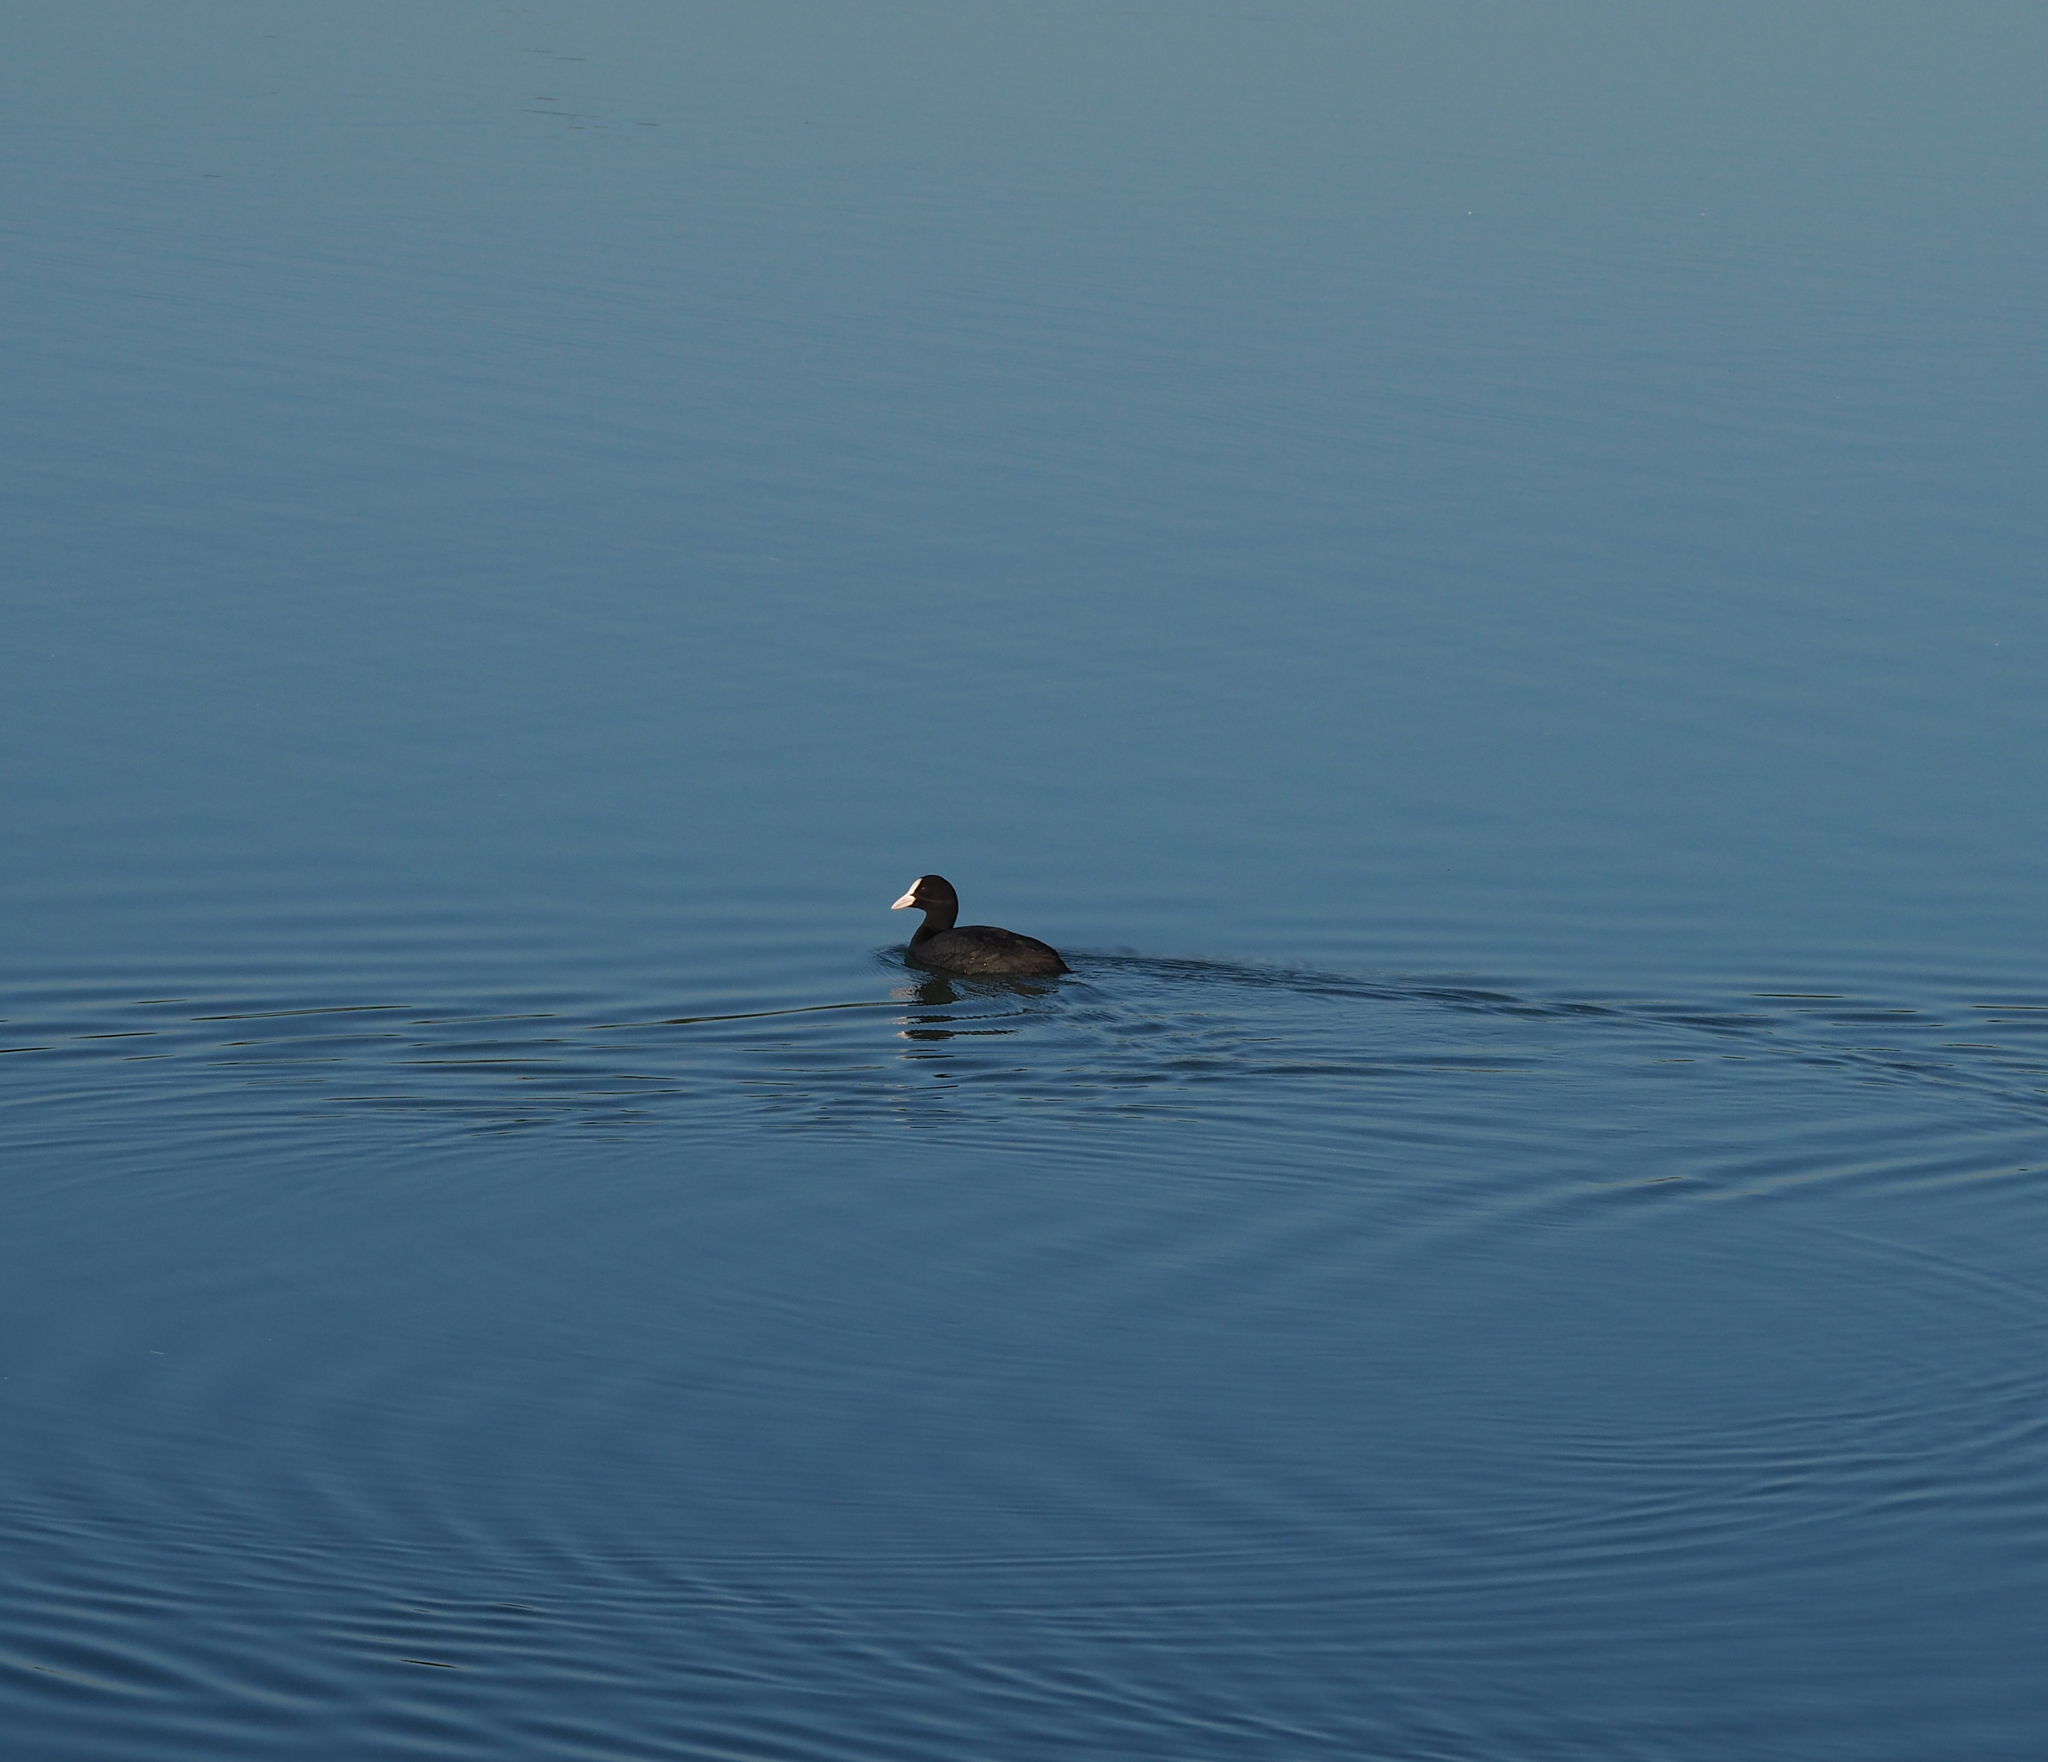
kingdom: Animalia
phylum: Chordata
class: Aves
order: Gruiformes
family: Rallidae
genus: Fulica
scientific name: Fulica atra
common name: Eurasian coot
